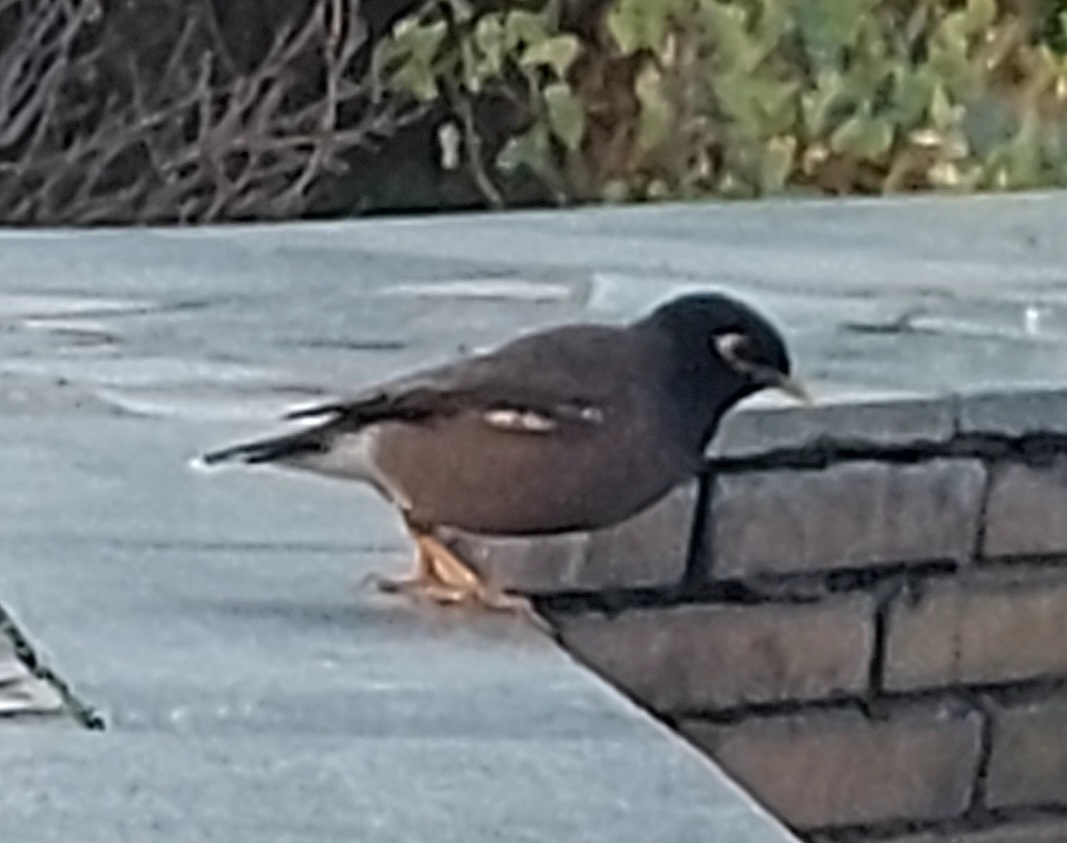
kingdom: Animalia
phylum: Chordata
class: Aves
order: Passeriformes
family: Sturnidae
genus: Acridotheres
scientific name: Acridotheres tristis
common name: Common myna
